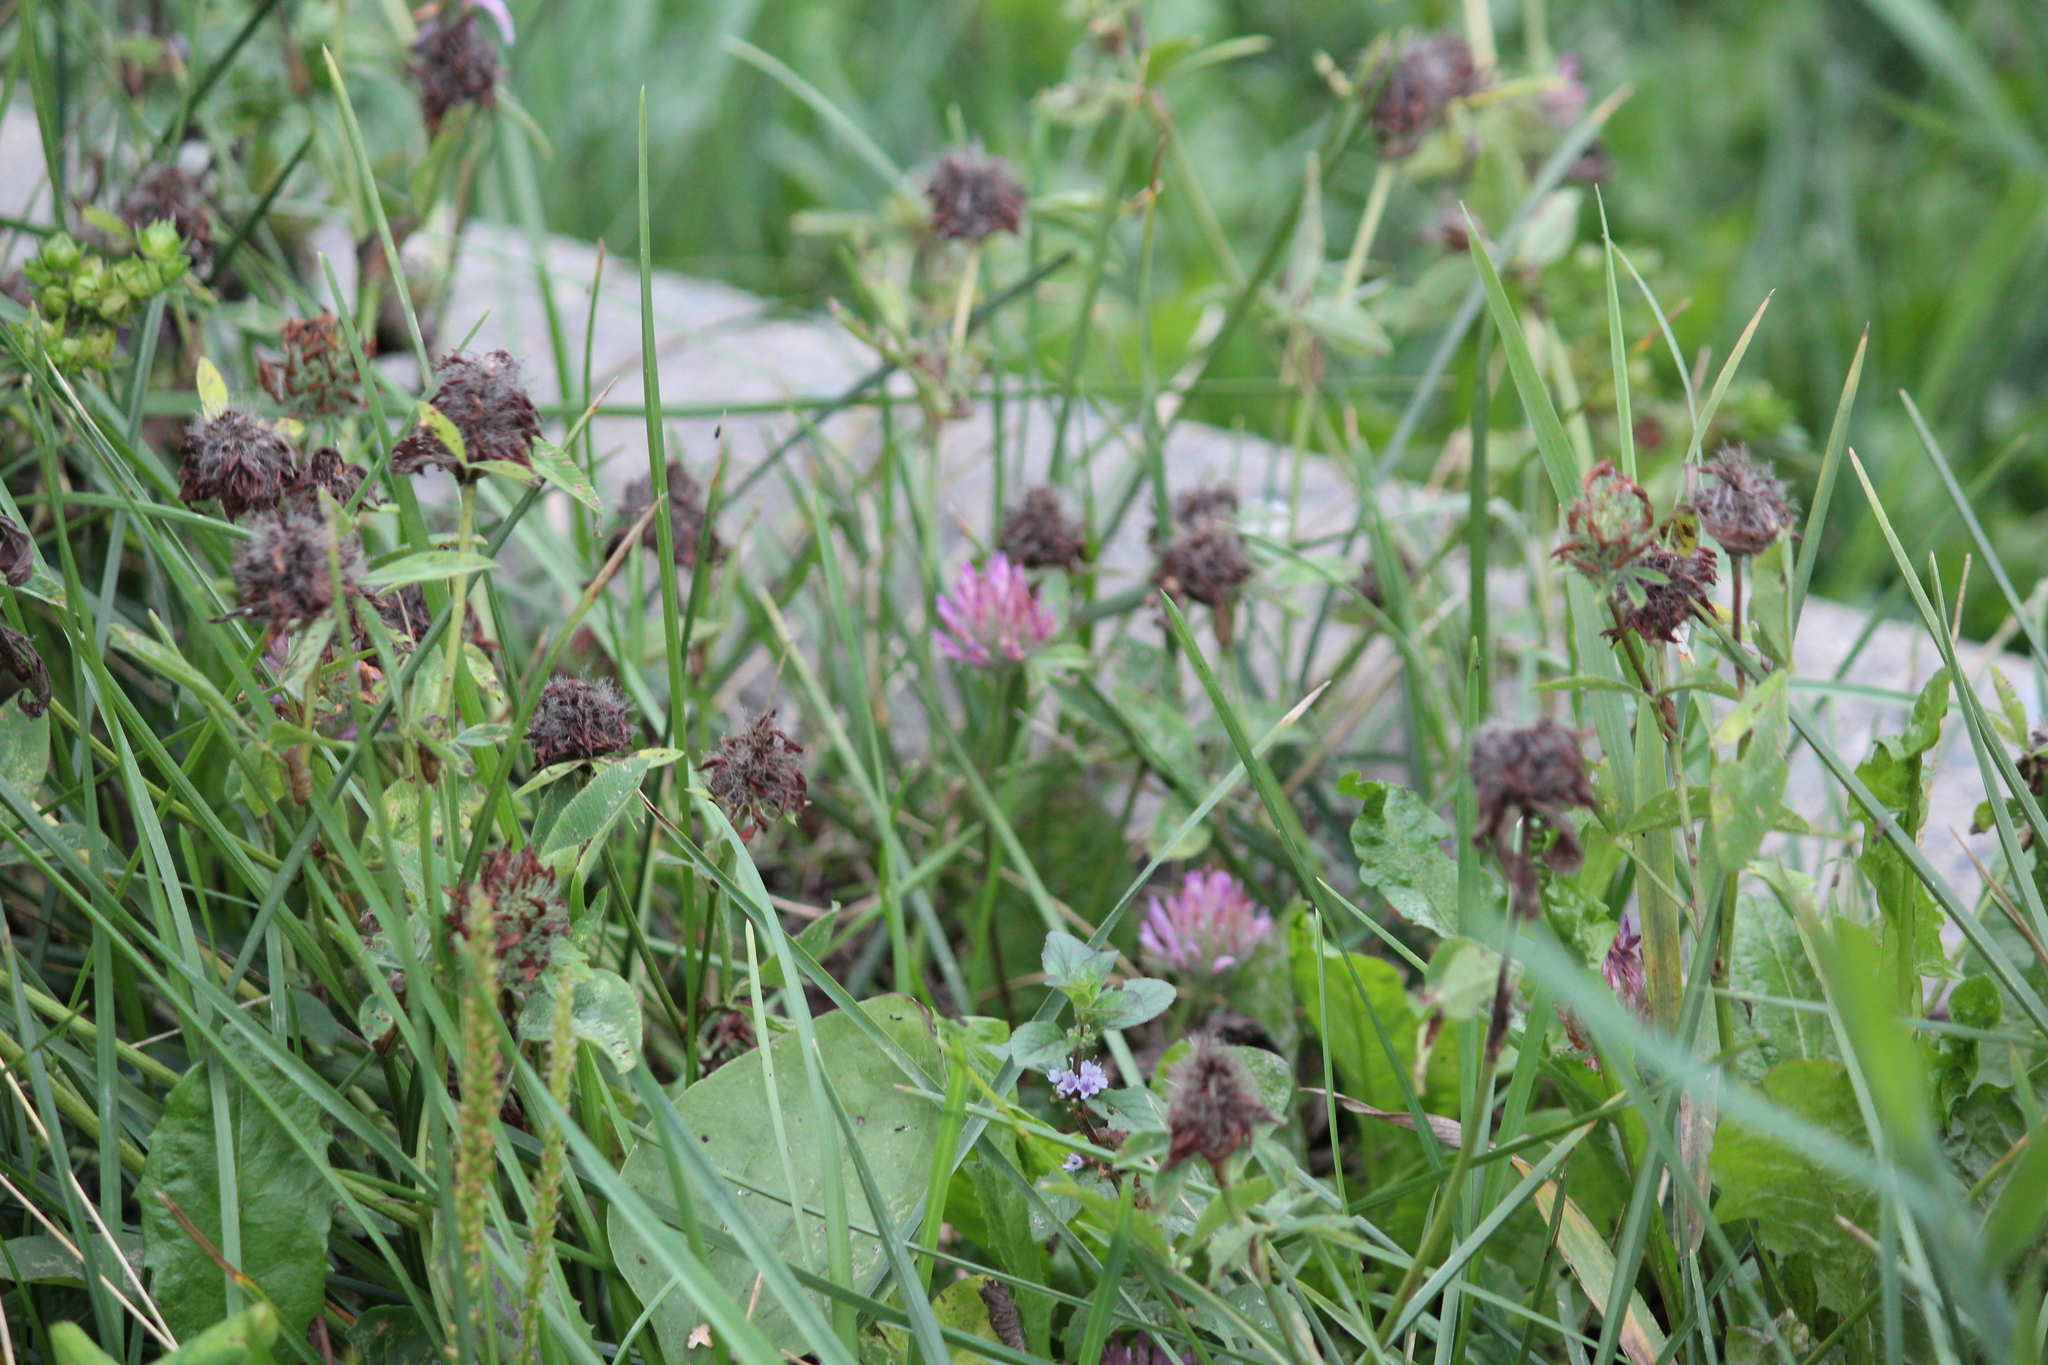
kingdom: Plantae
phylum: Tracheophyta
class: Magnoliopsida
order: Fabales
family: Fabaceae
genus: Trifolium
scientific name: Trifolium pratense
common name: Red clover
